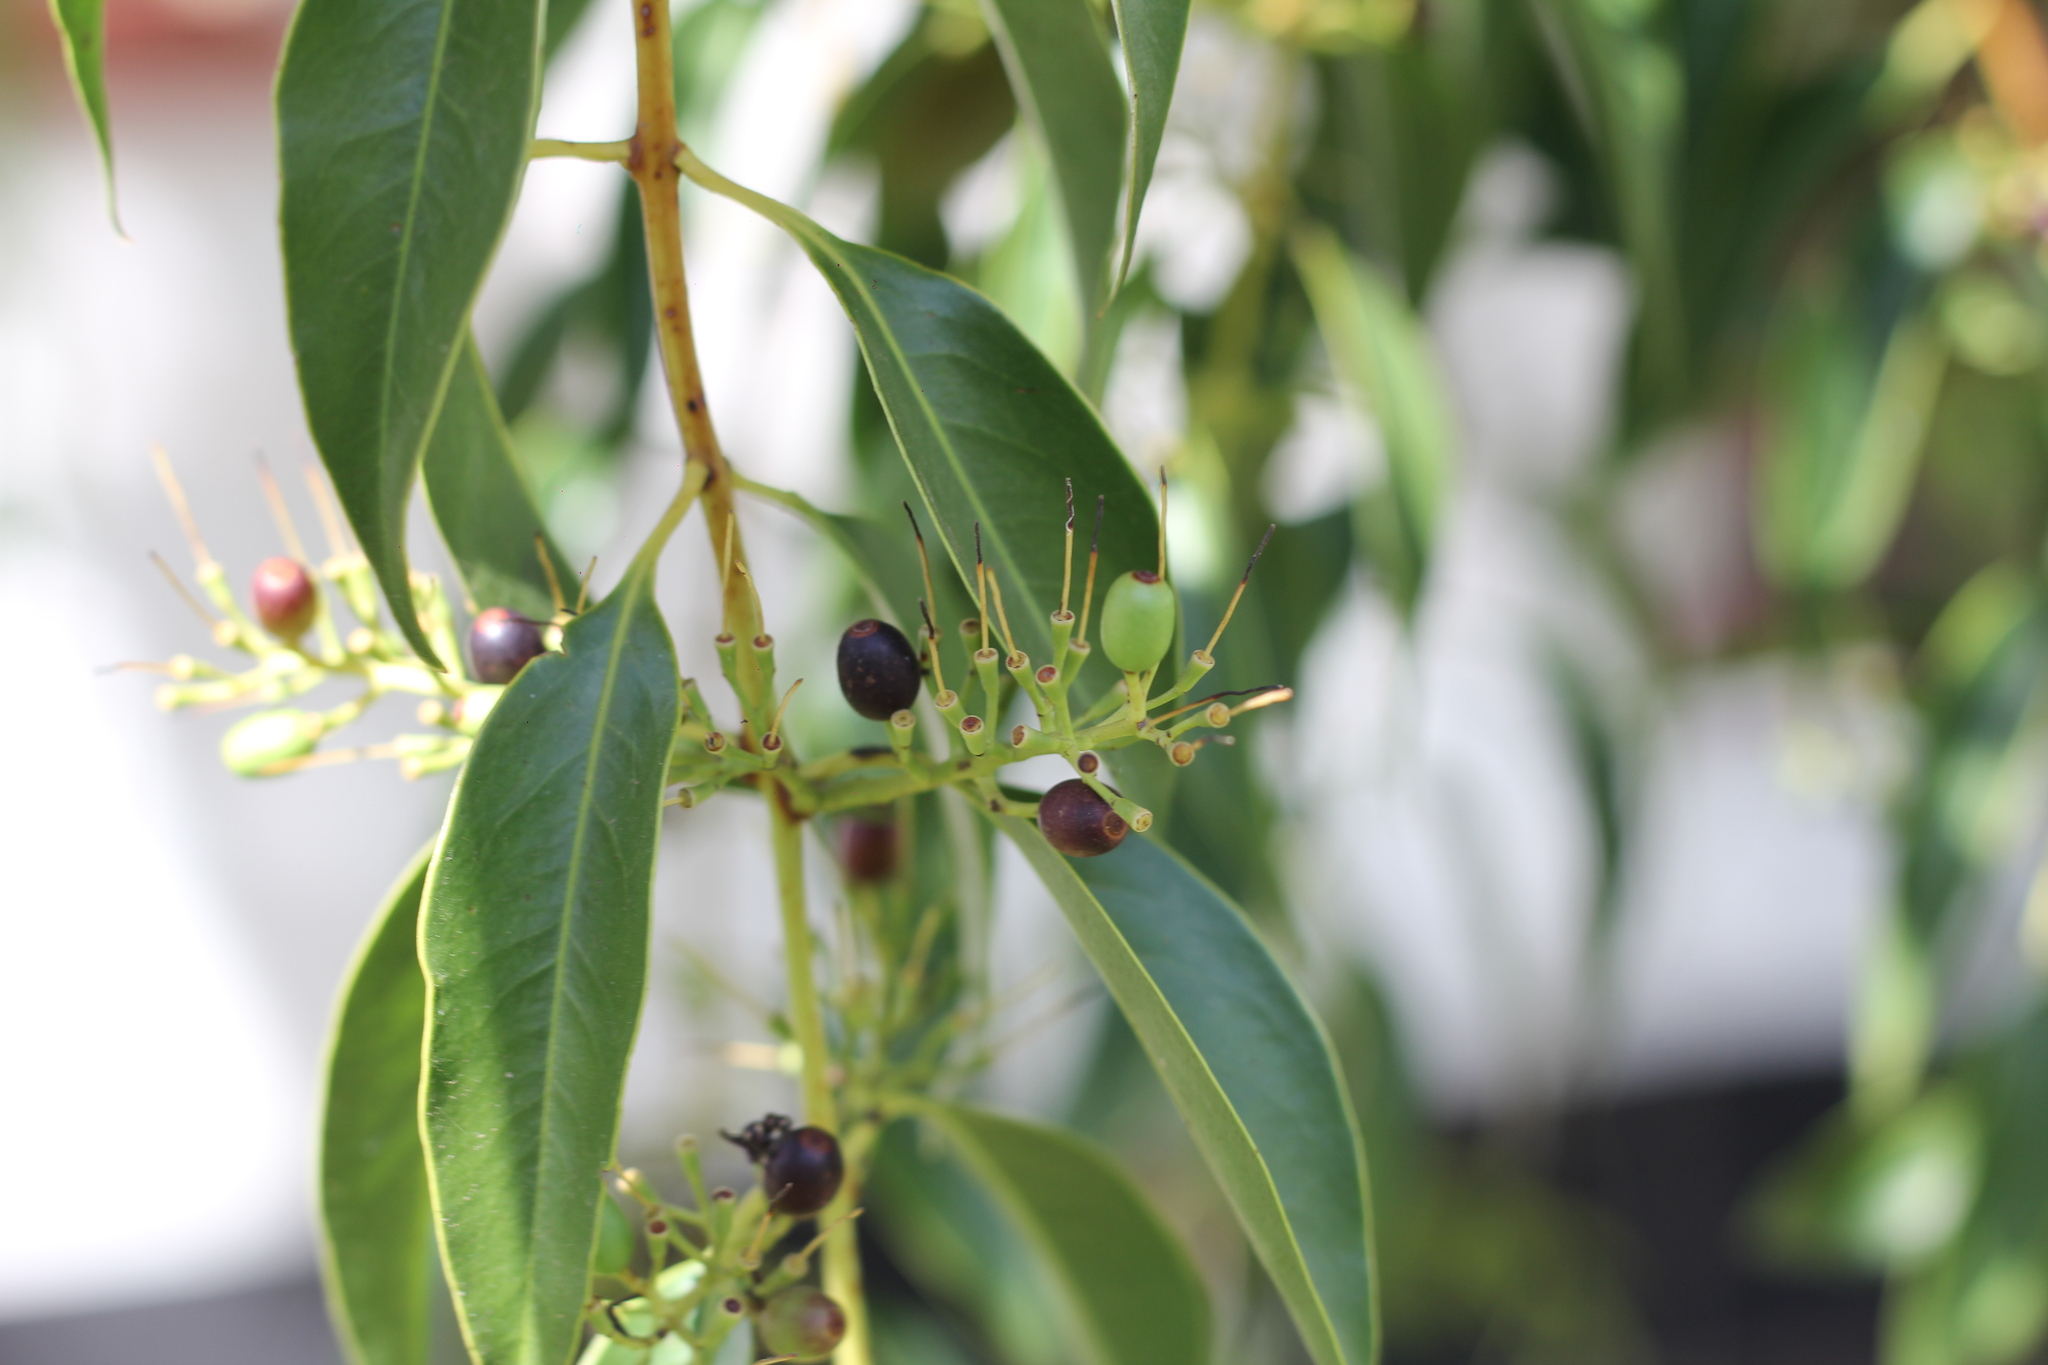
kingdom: Plantae
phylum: Tracheophyta
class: Magnoliopsida
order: Santalales
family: Loranthaceae
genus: Tripodanthus
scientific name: Tripodanthus acutifolius
